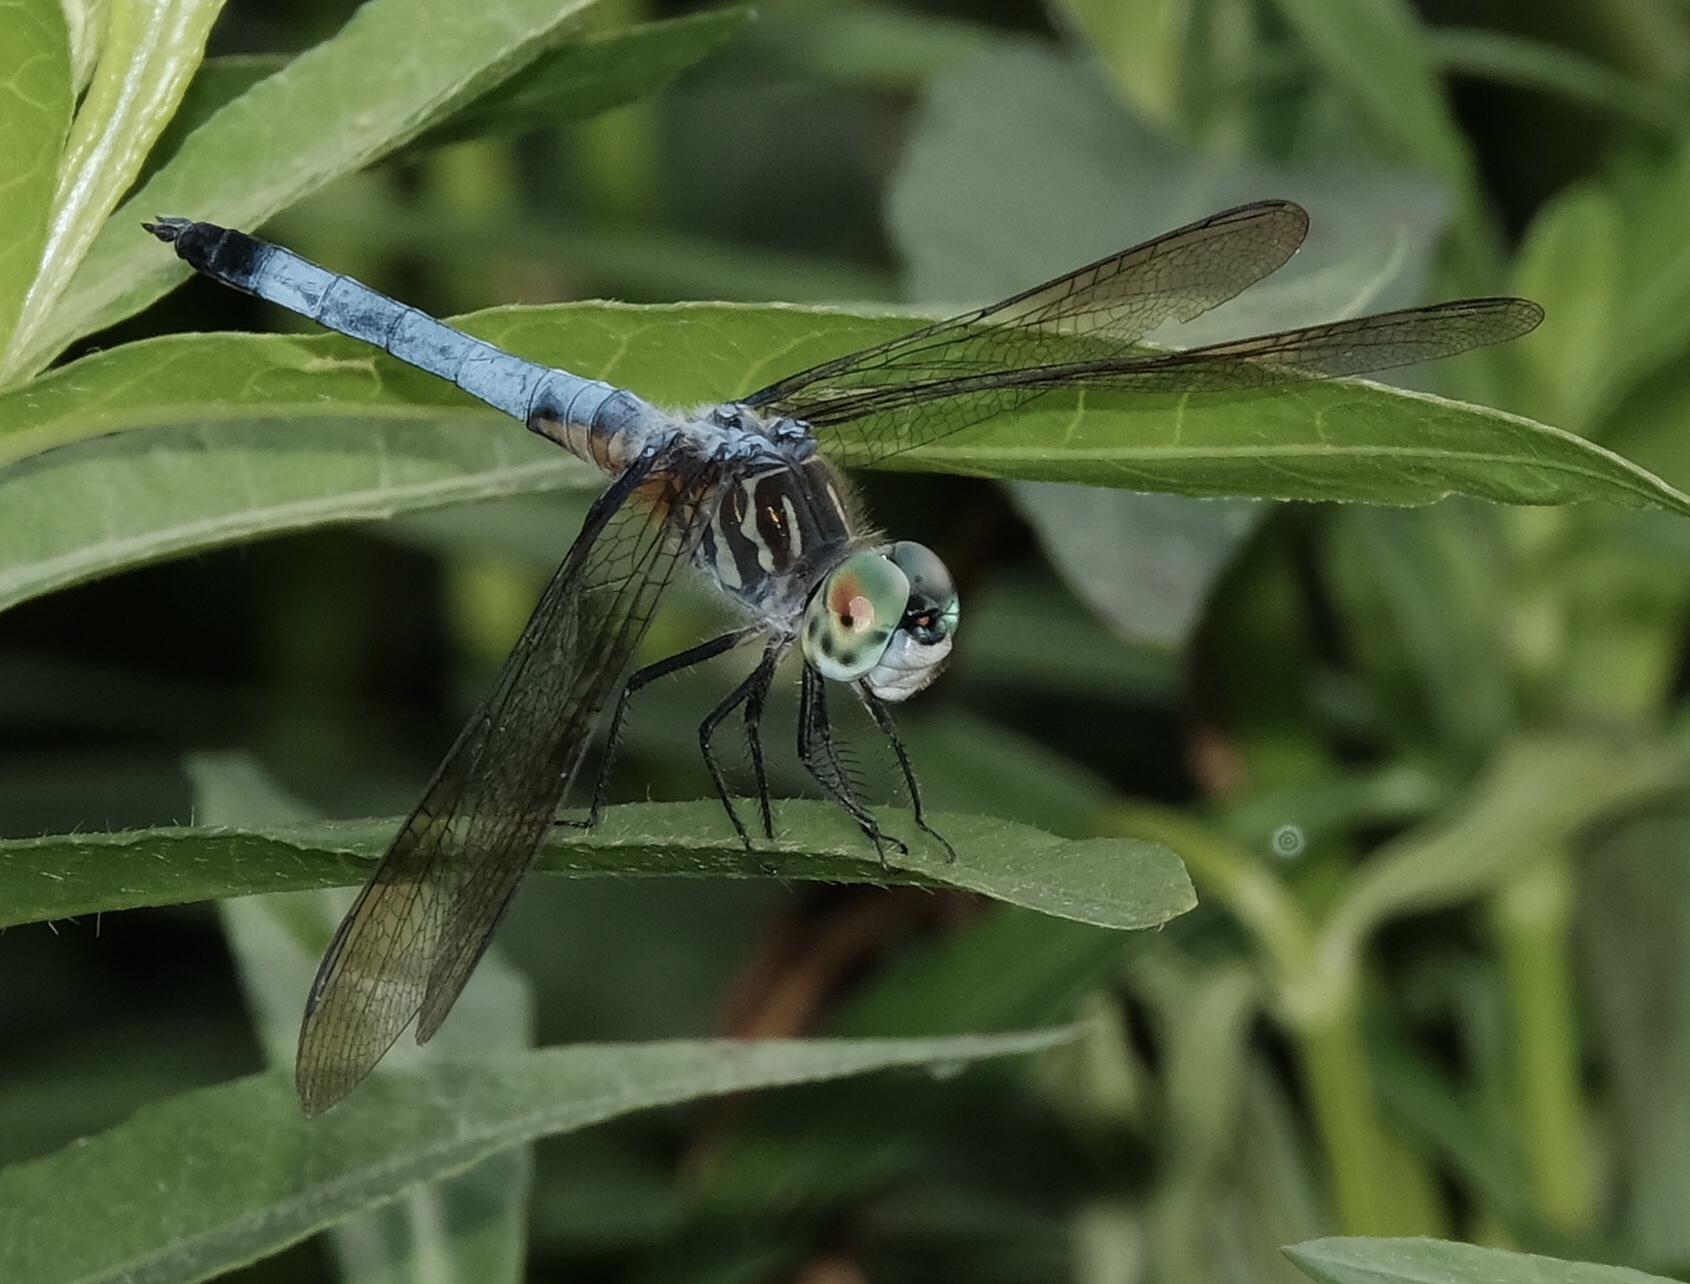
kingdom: Animalia
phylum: Arthropoda
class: Insecta
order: Odonata
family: Libellulidae
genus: Pachydiplax
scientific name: Pachydiplax longipennis
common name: Blue dasher
